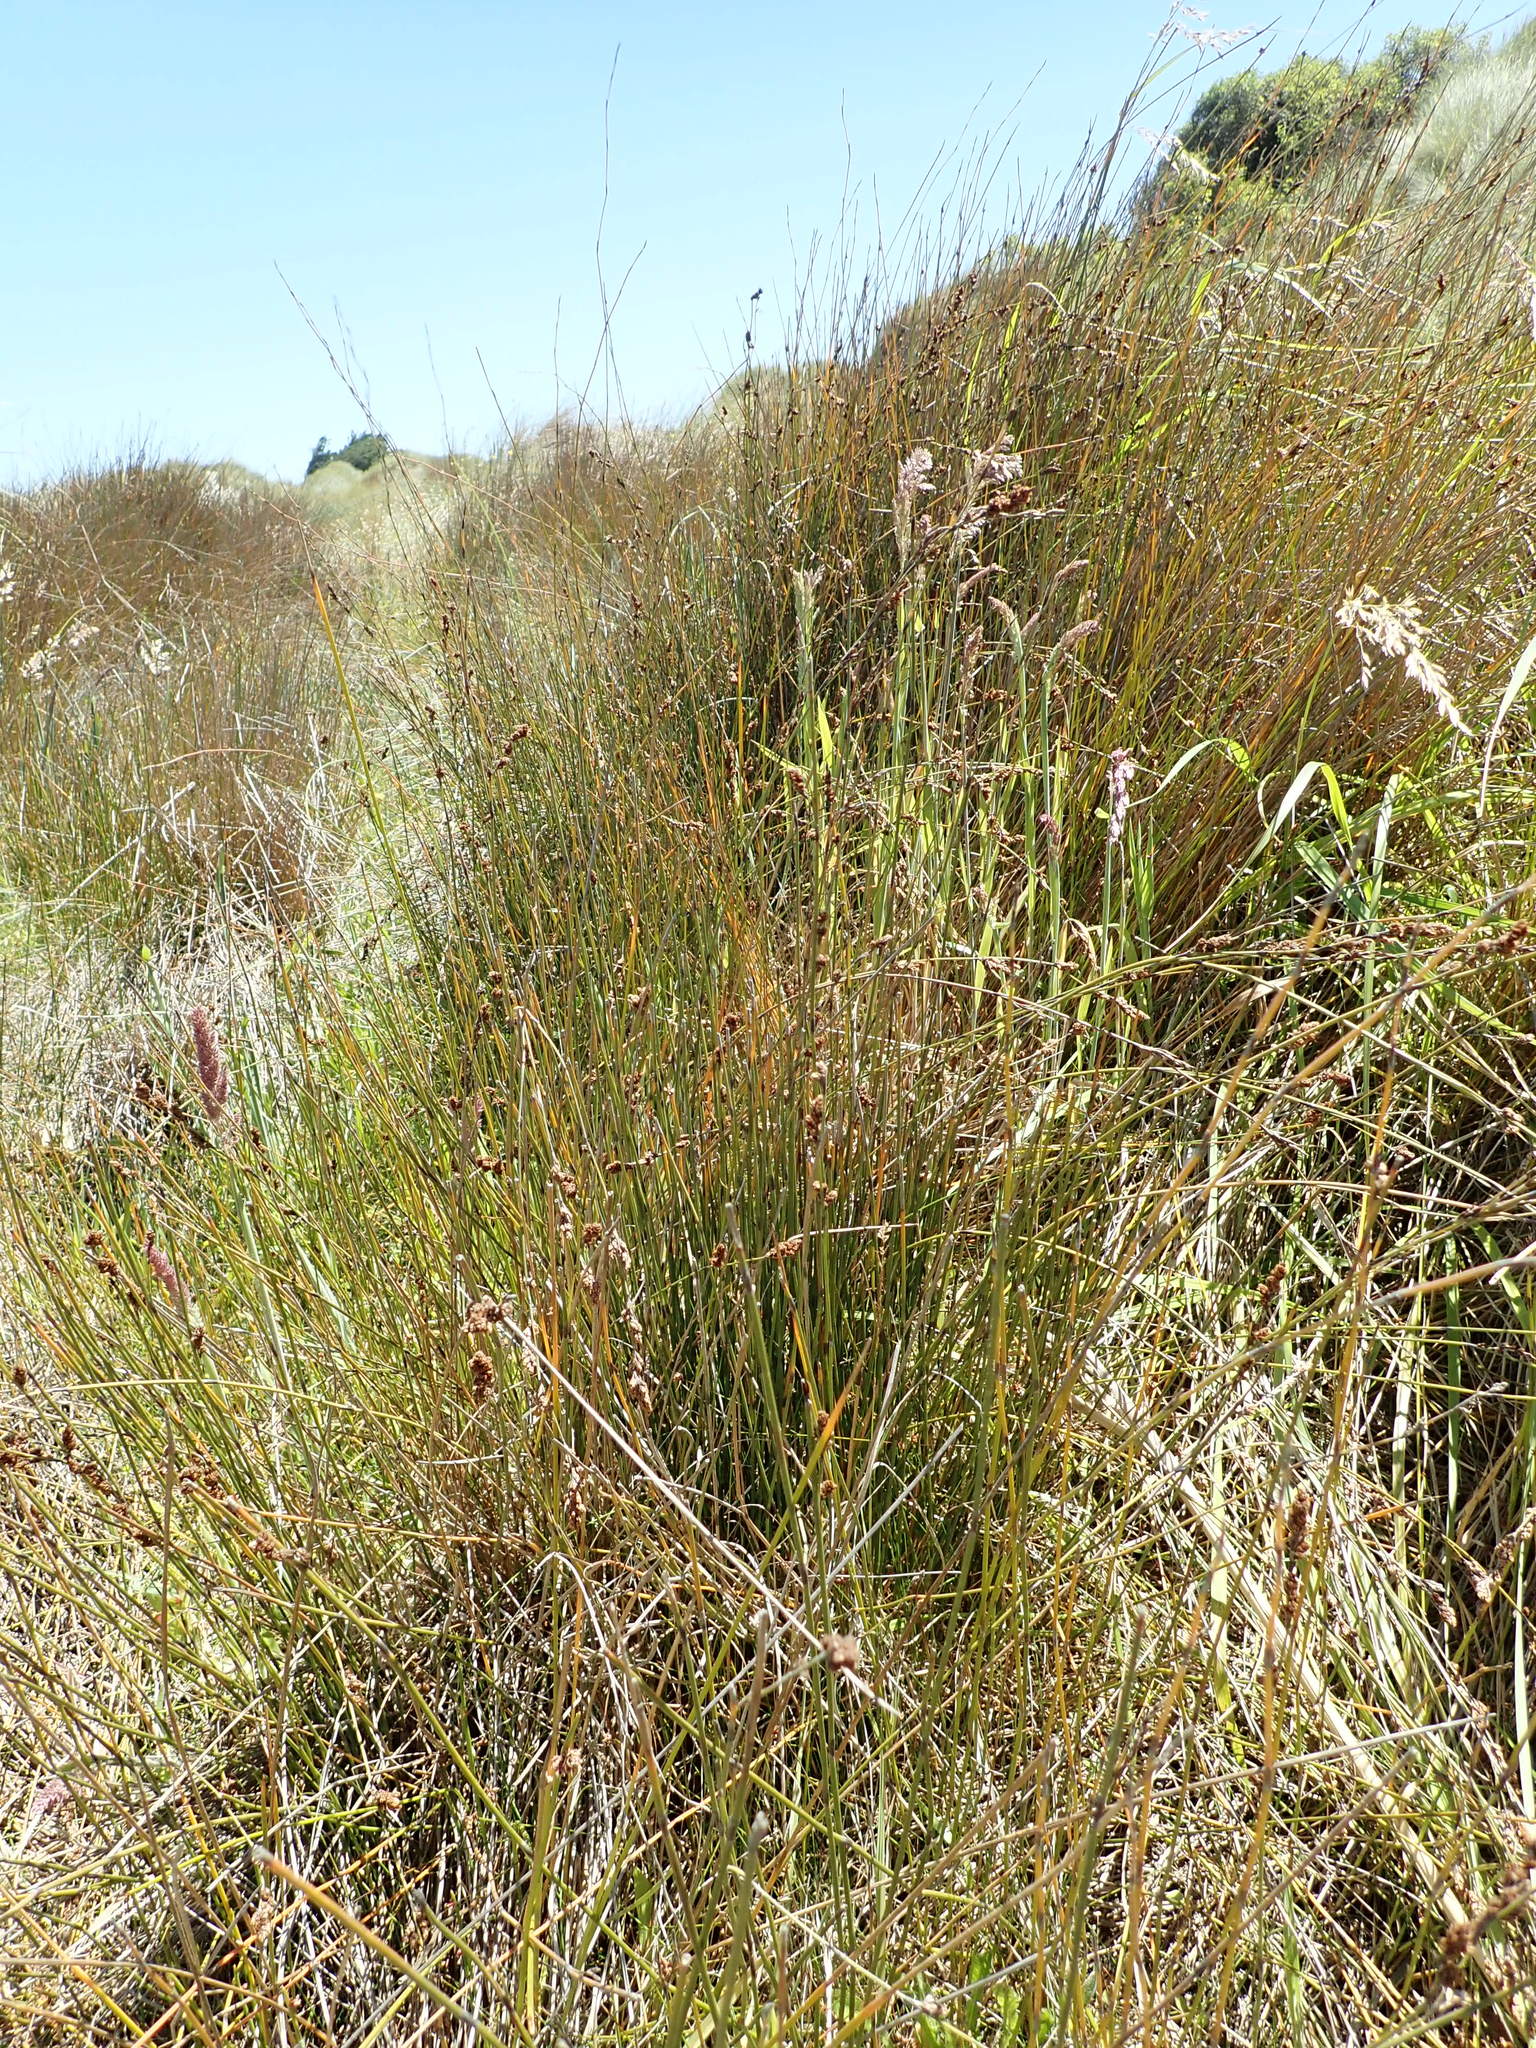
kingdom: Plantae
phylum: Tracheophyta
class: Liliopsida
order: Poales
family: Restionaceae
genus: Apodasmia
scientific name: Apodasmia similis
